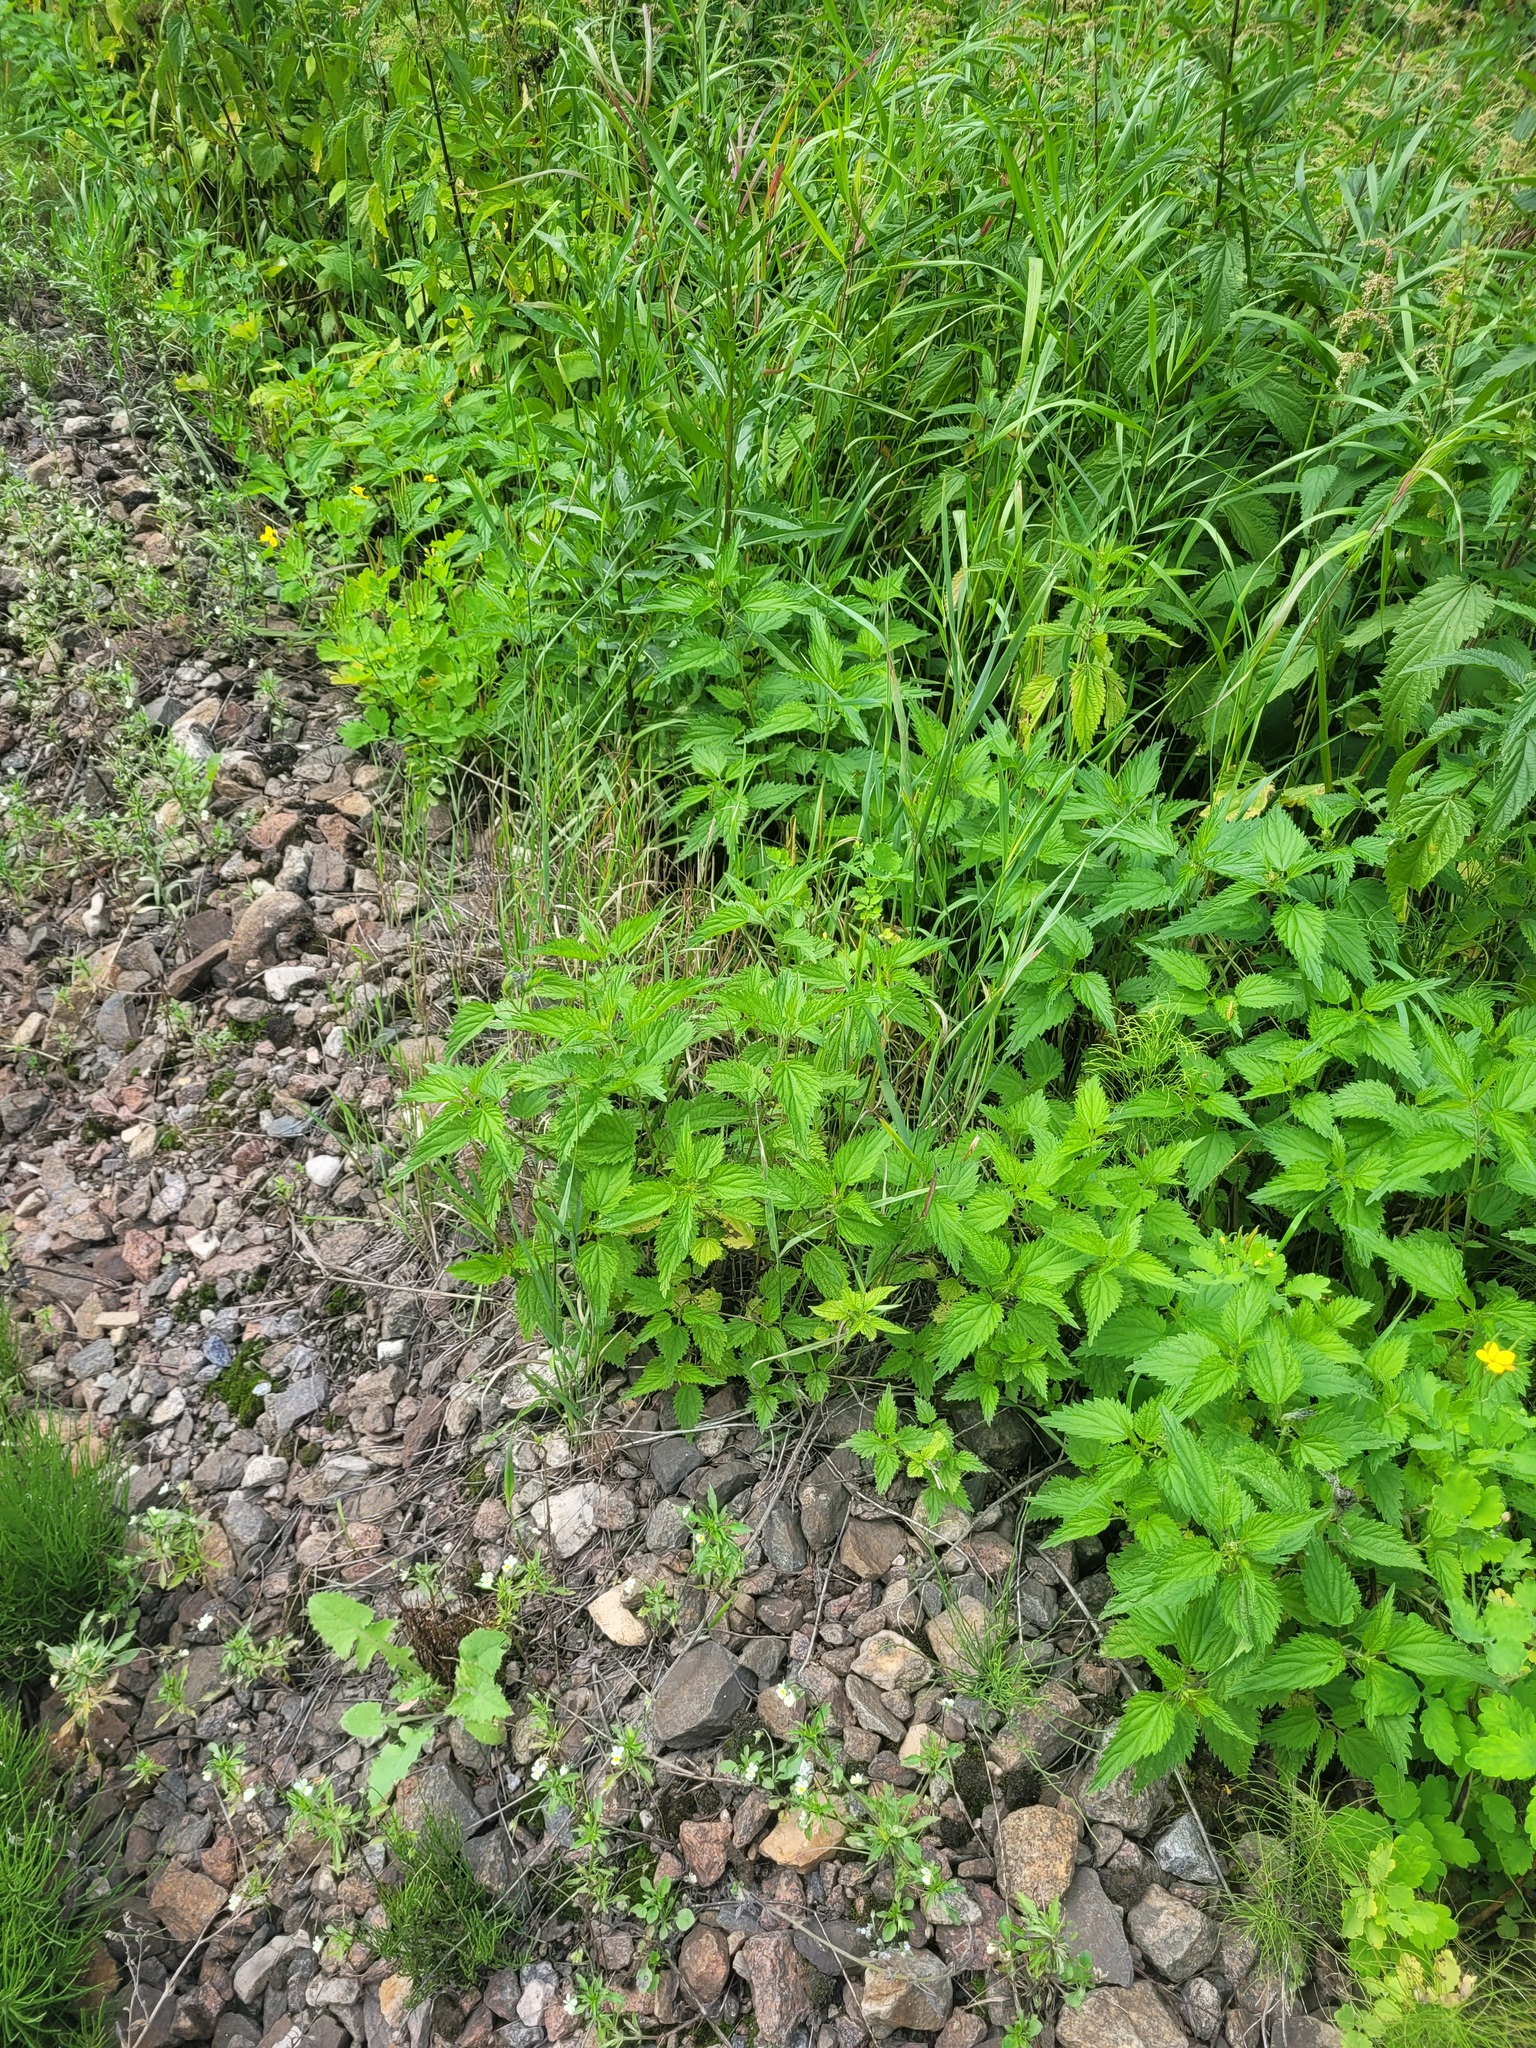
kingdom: Plantae
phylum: Tracheophyta
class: Magnoliopsida
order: Rosales
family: Urticaceae
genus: Urtica
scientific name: Urtica dioica
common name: Common nettle
